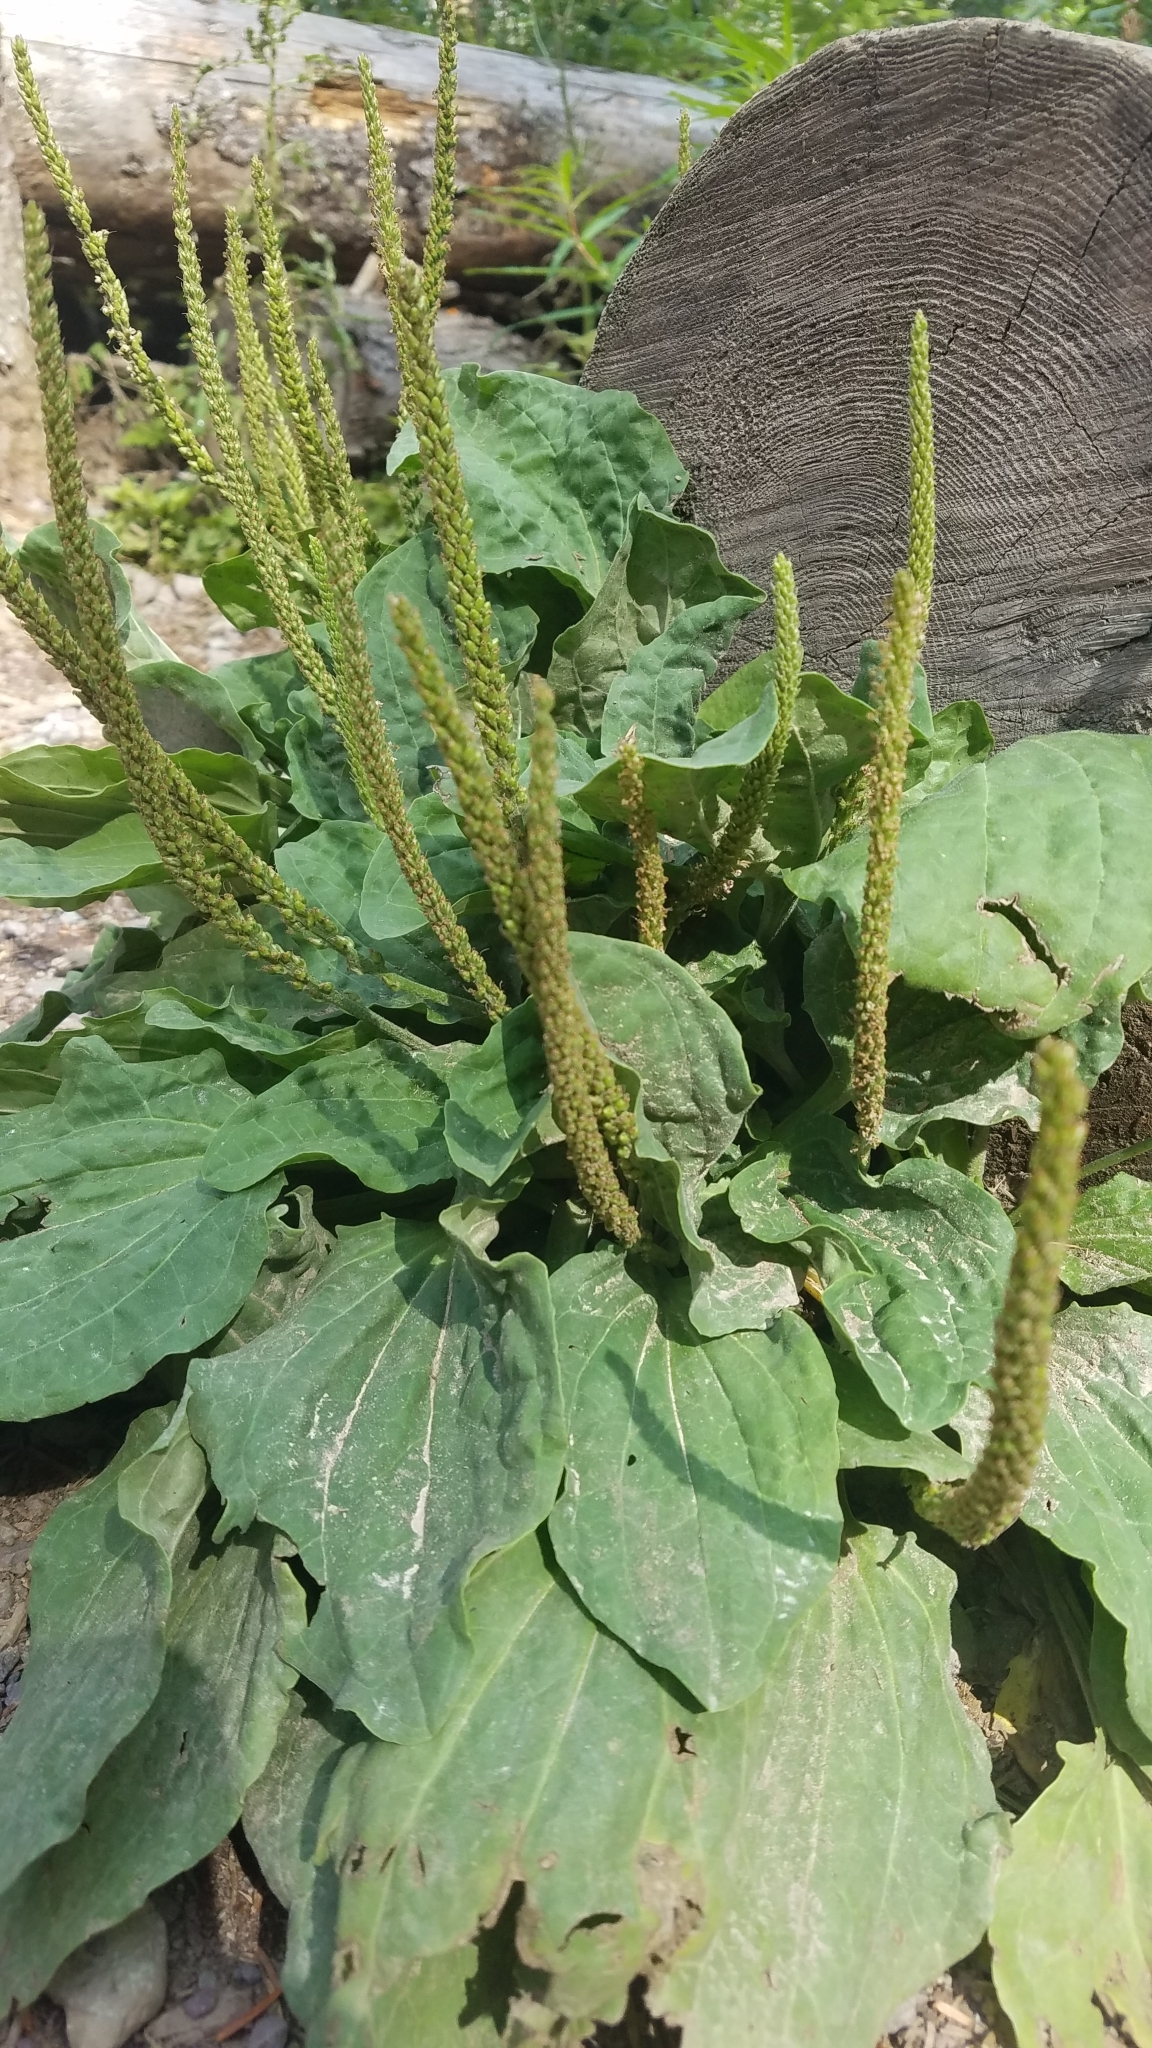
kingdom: Plantae
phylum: Tracheophyta
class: Magnoliopsida
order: Lamiales
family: Plantaginaceae
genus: Plantago
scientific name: Plantago major
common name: Common plantain
